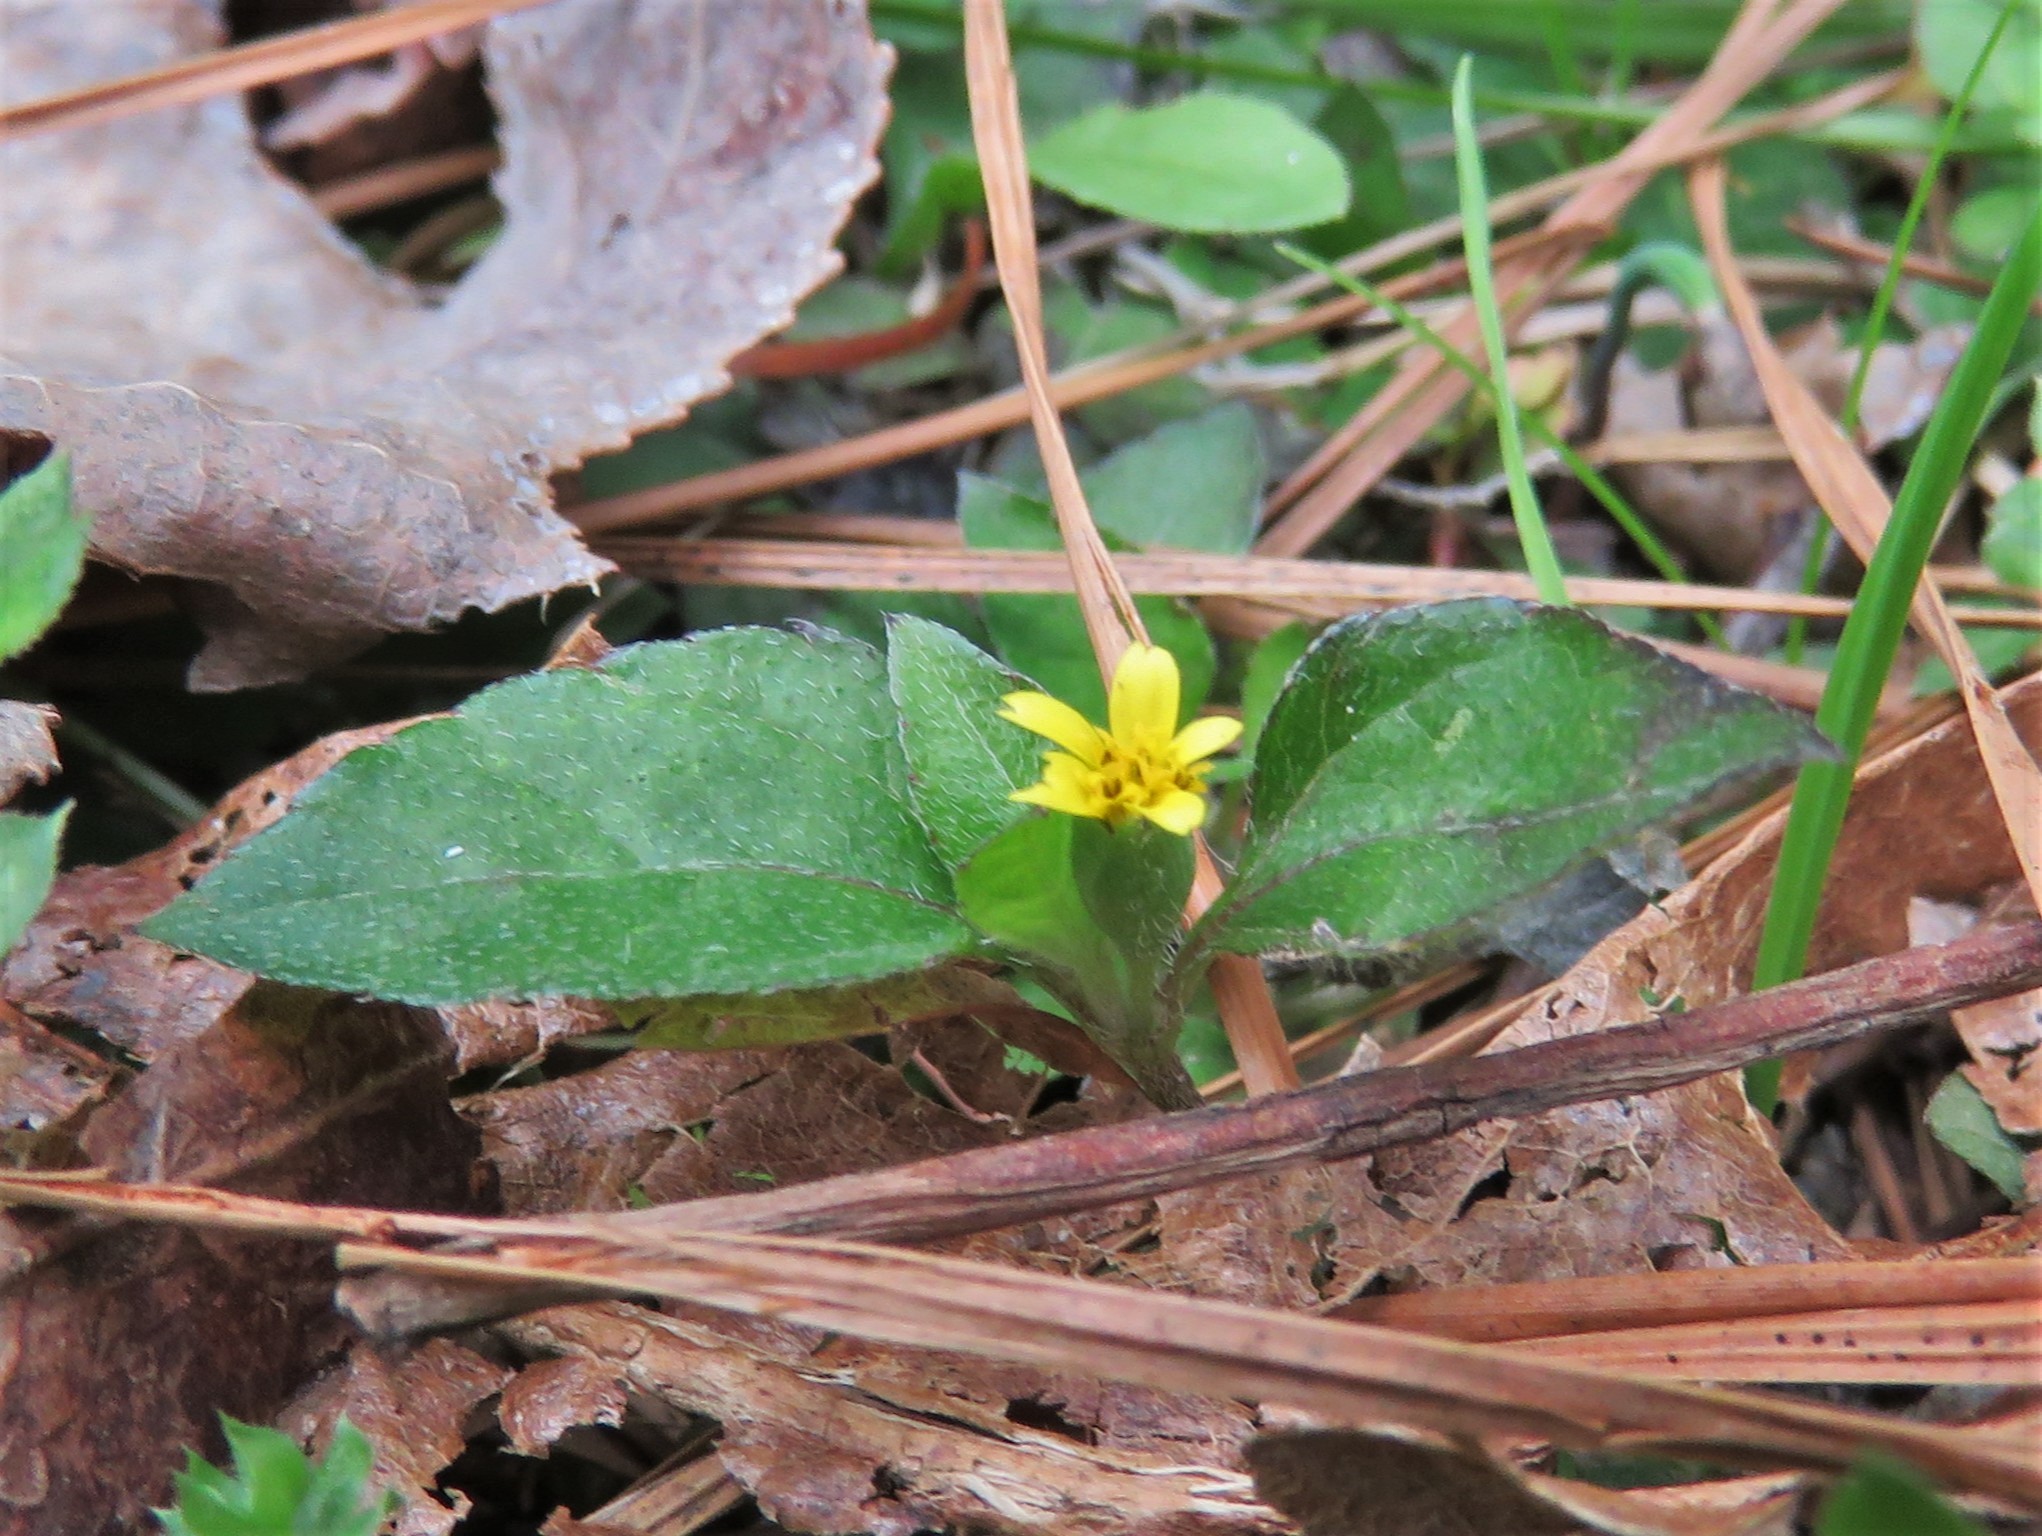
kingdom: Plantae
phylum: Tracheophyta
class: Magnoliopsida
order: Asterales
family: Asteraceae
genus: Calyptocarpus
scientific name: Calyptocarpus vialis
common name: Straggler daisy
